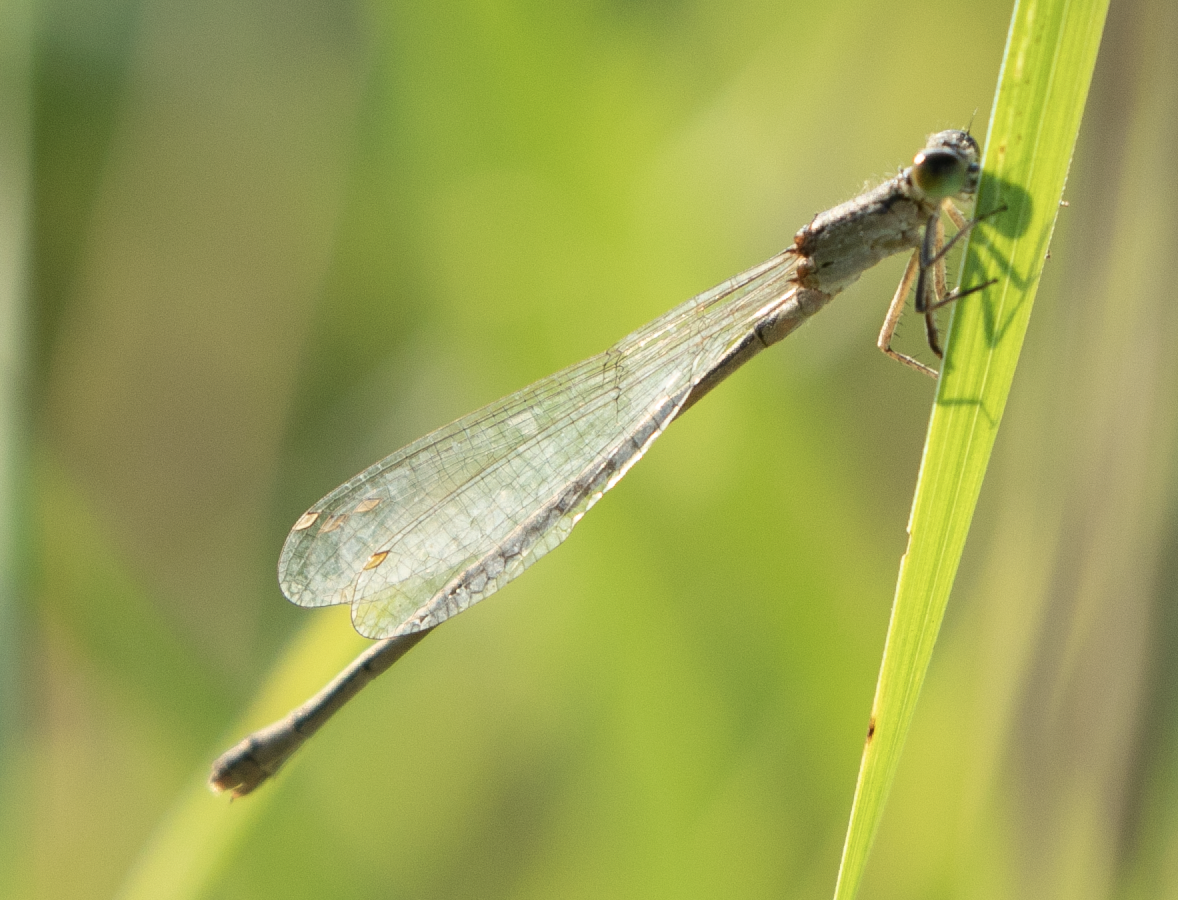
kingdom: Animalia
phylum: Arthropoda
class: Insecta
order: Odonata
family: Coenagrionidae
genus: Ischnura
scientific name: Ischnura elegans
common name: Blue-tailed damselfly
